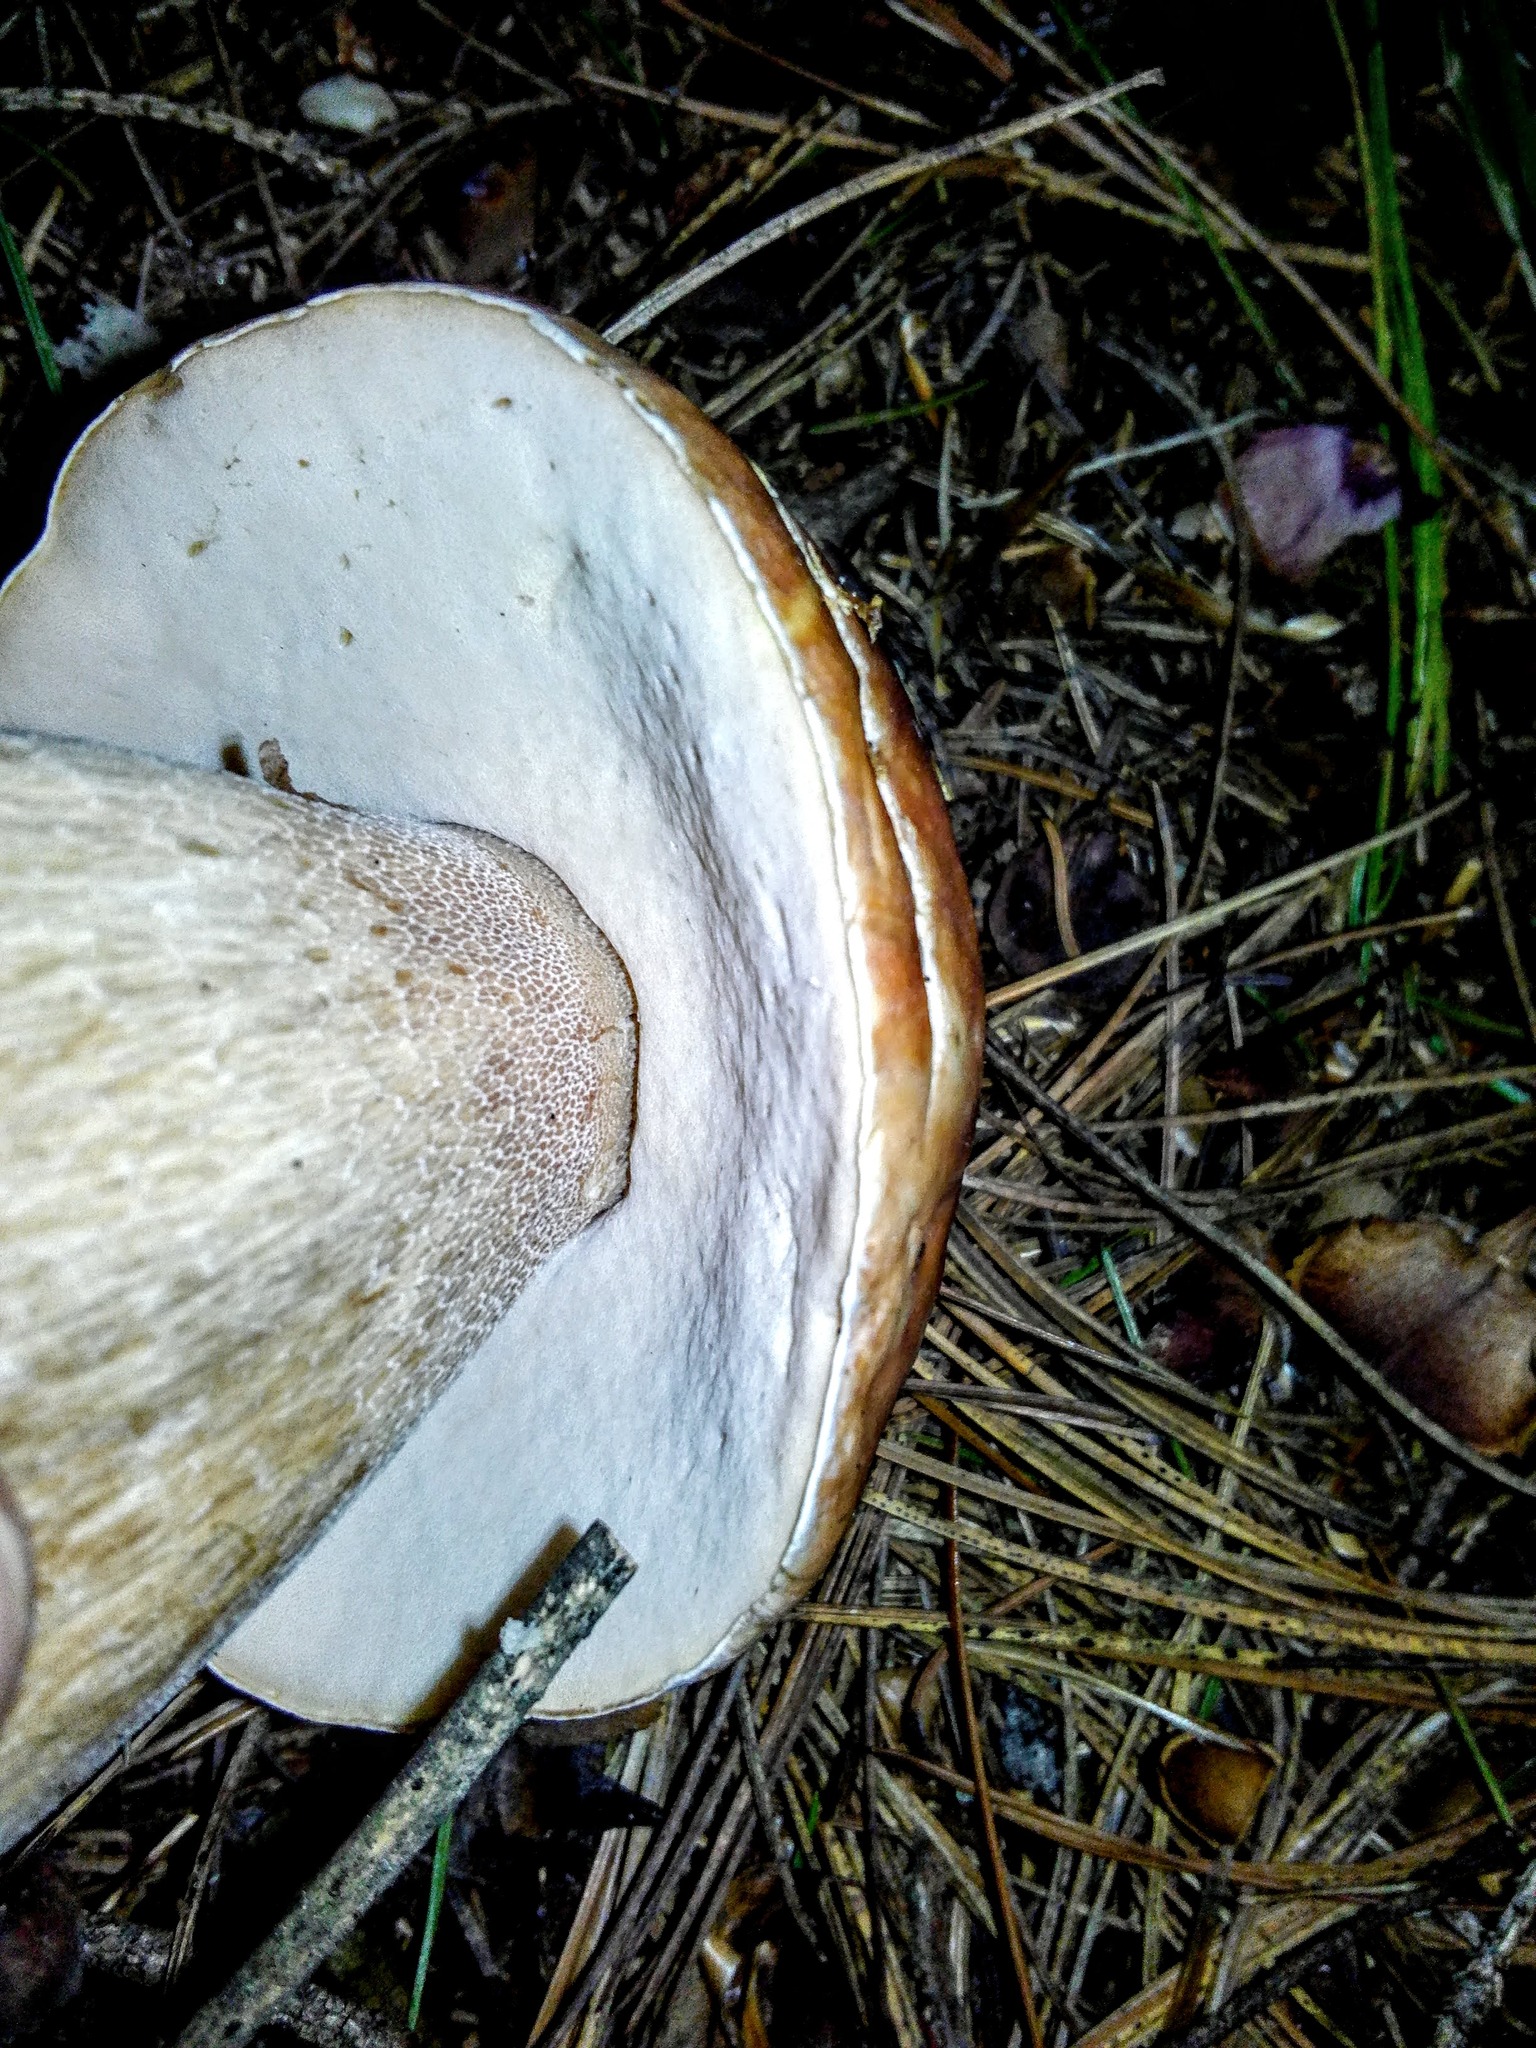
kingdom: Fungi
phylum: Basidiomycota
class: Agaricomycetes
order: Boletales
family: Boletaceae
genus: Boletus
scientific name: Boletus edulis
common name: Cep
